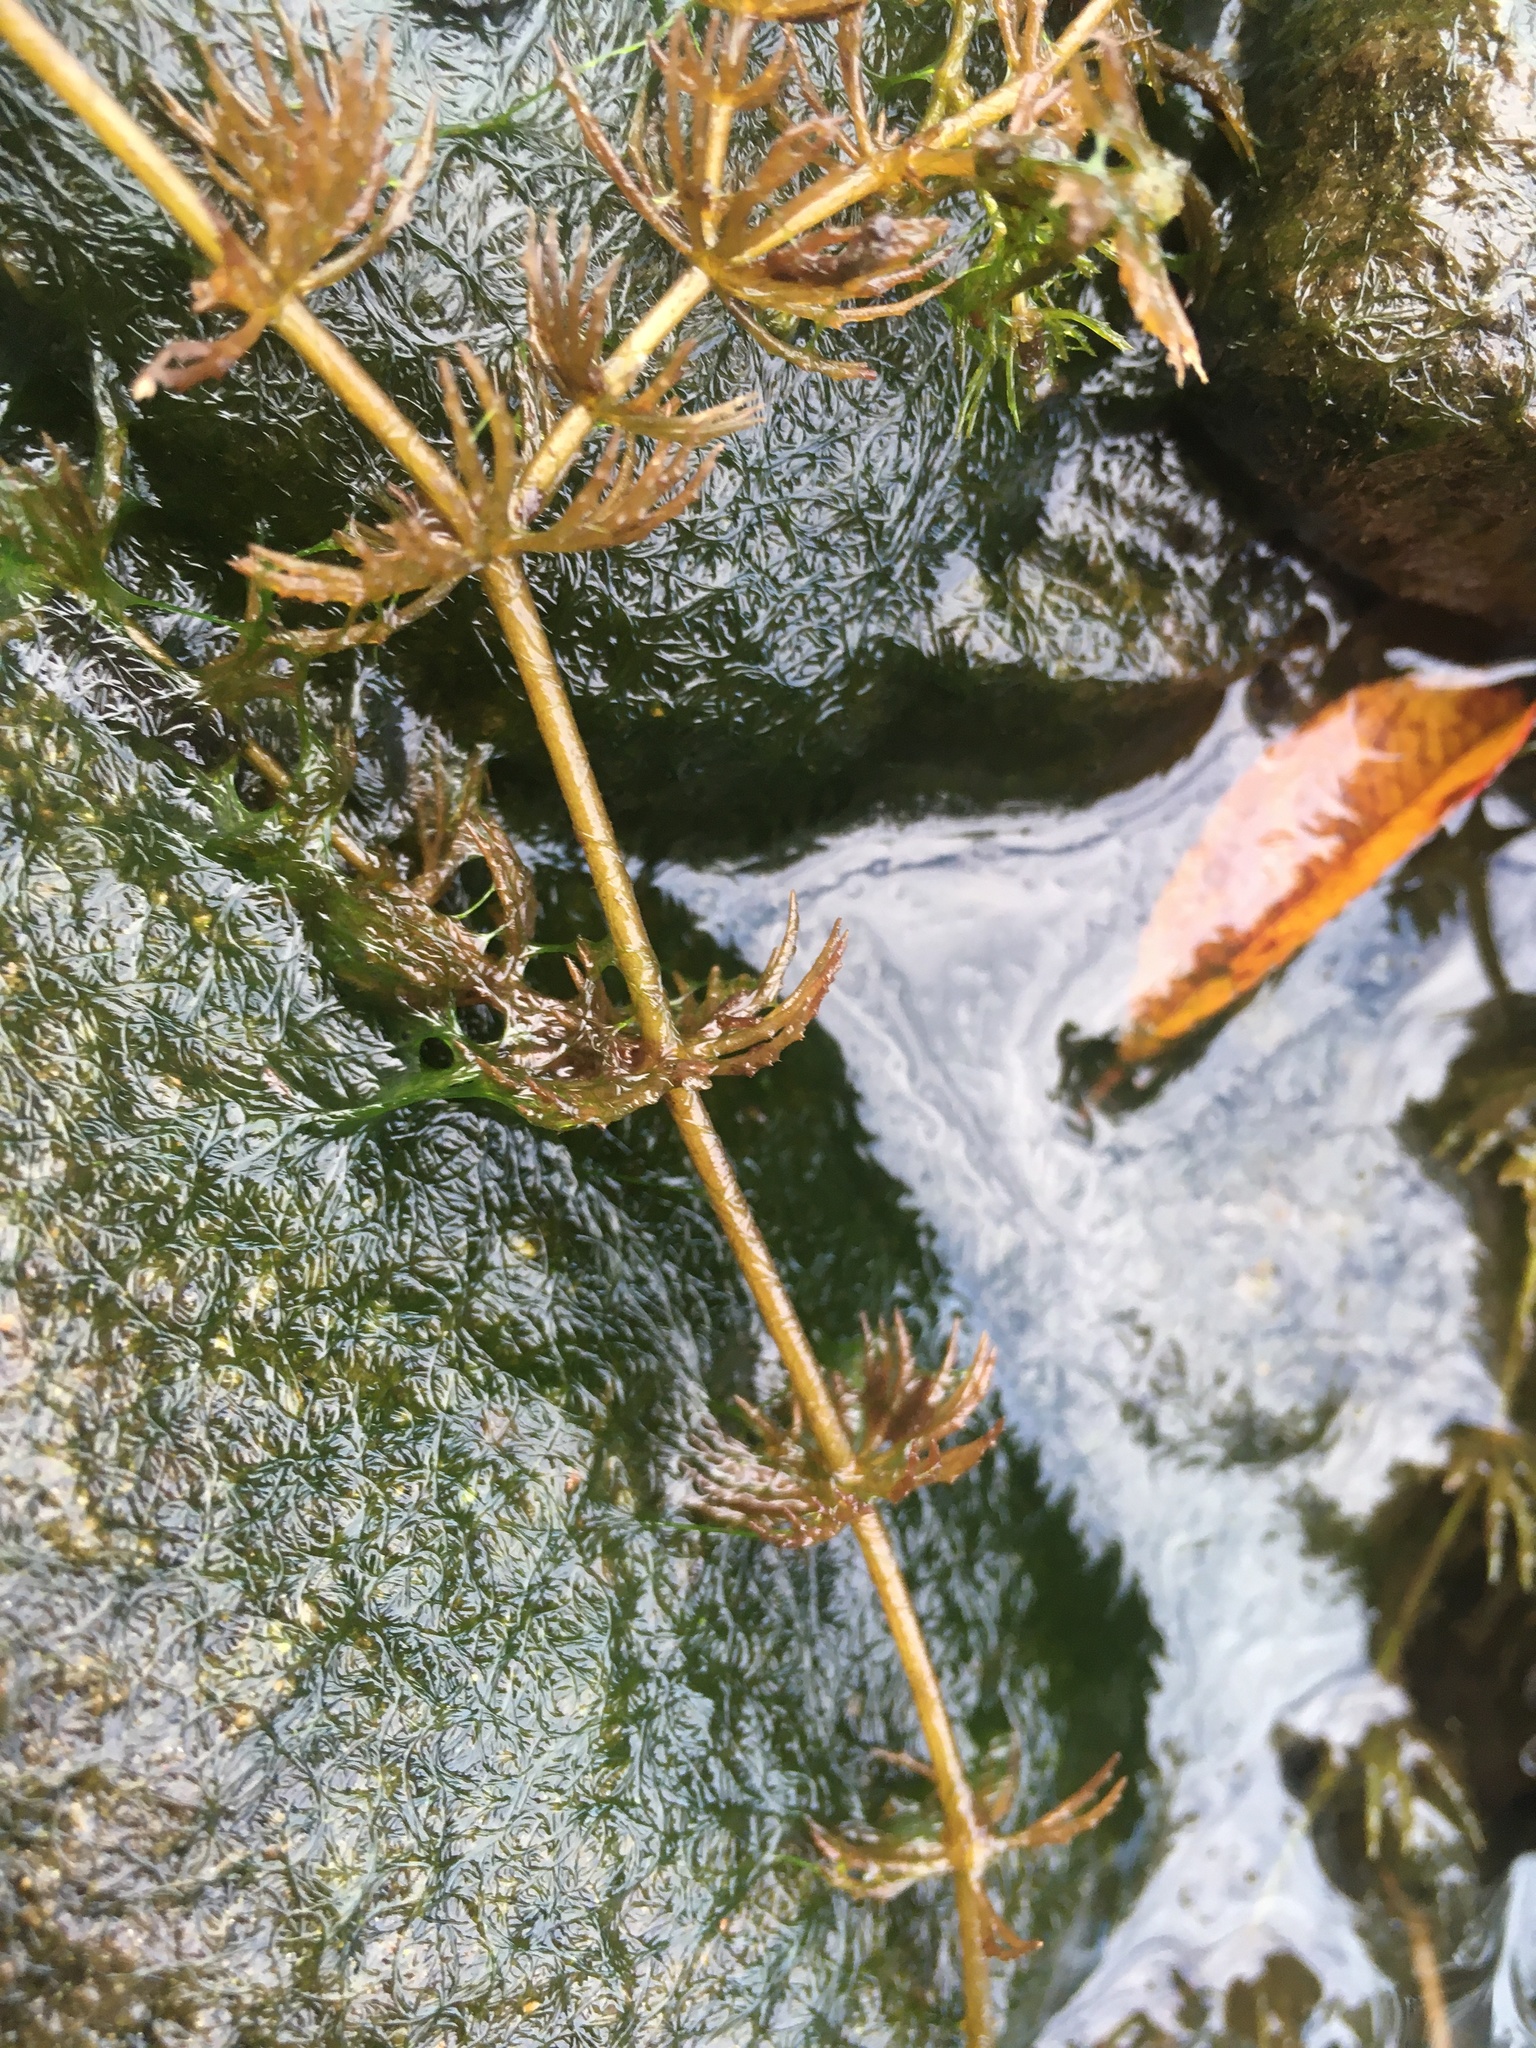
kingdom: Plantae
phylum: Tracheophyta
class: Magnoliopsida
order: Ceratophyllales
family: Ceratophyllaceae
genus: Ceratophyllum
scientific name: Ceratophyllum demersum
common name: Rigid hornwort
